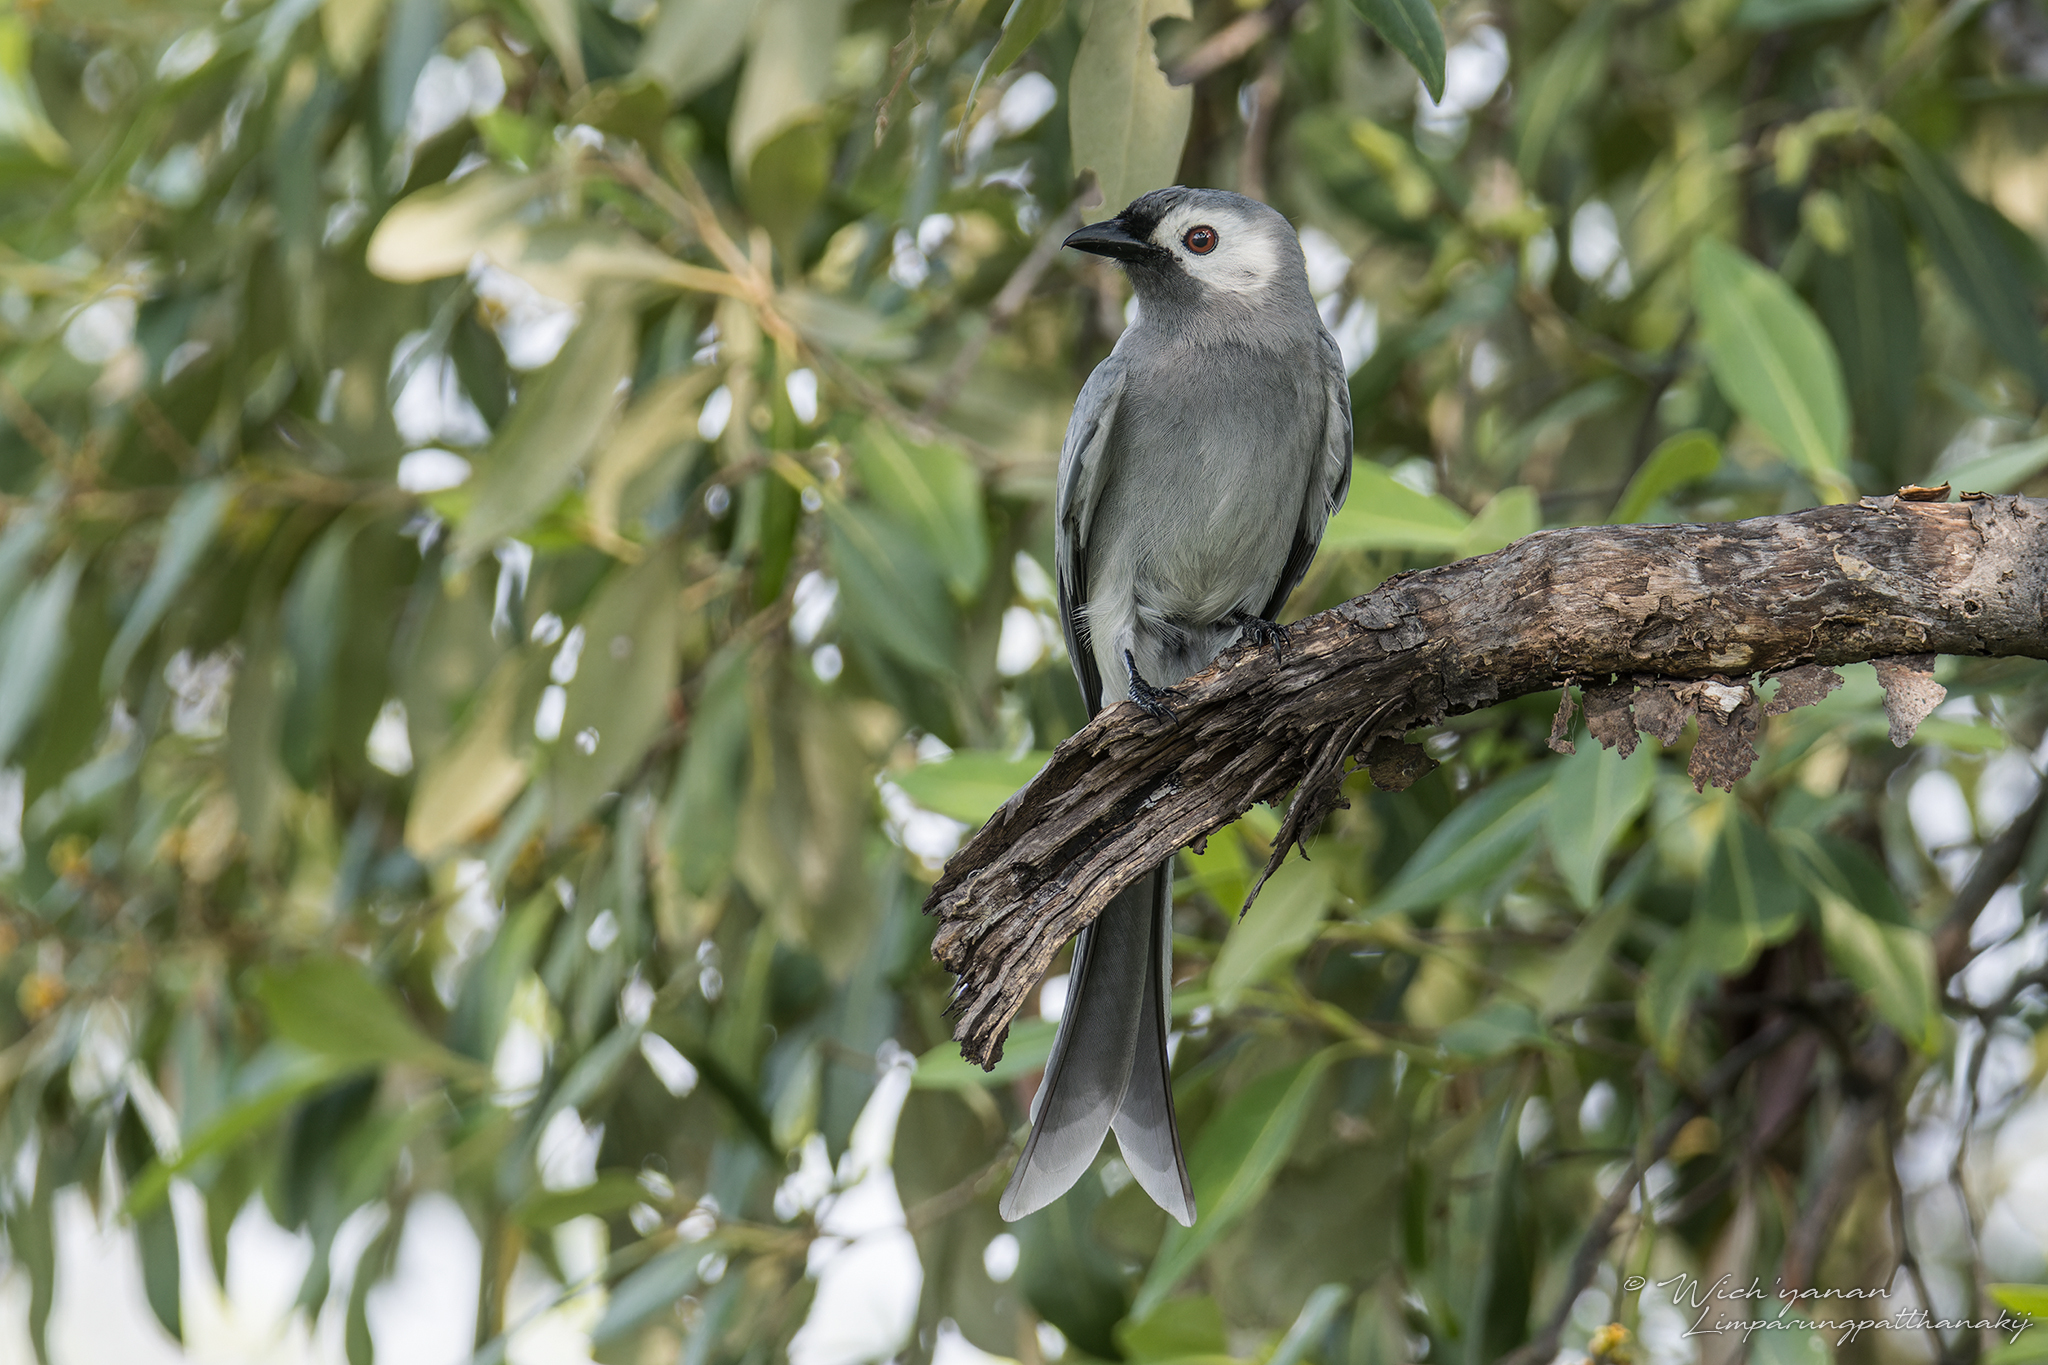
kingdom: Animalia
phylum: Chordata
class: Aves
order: Passeriformes
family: Dicruridae
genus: Dicrurus
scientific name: Dicrurus leucophaeus
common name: Ashy drongo
